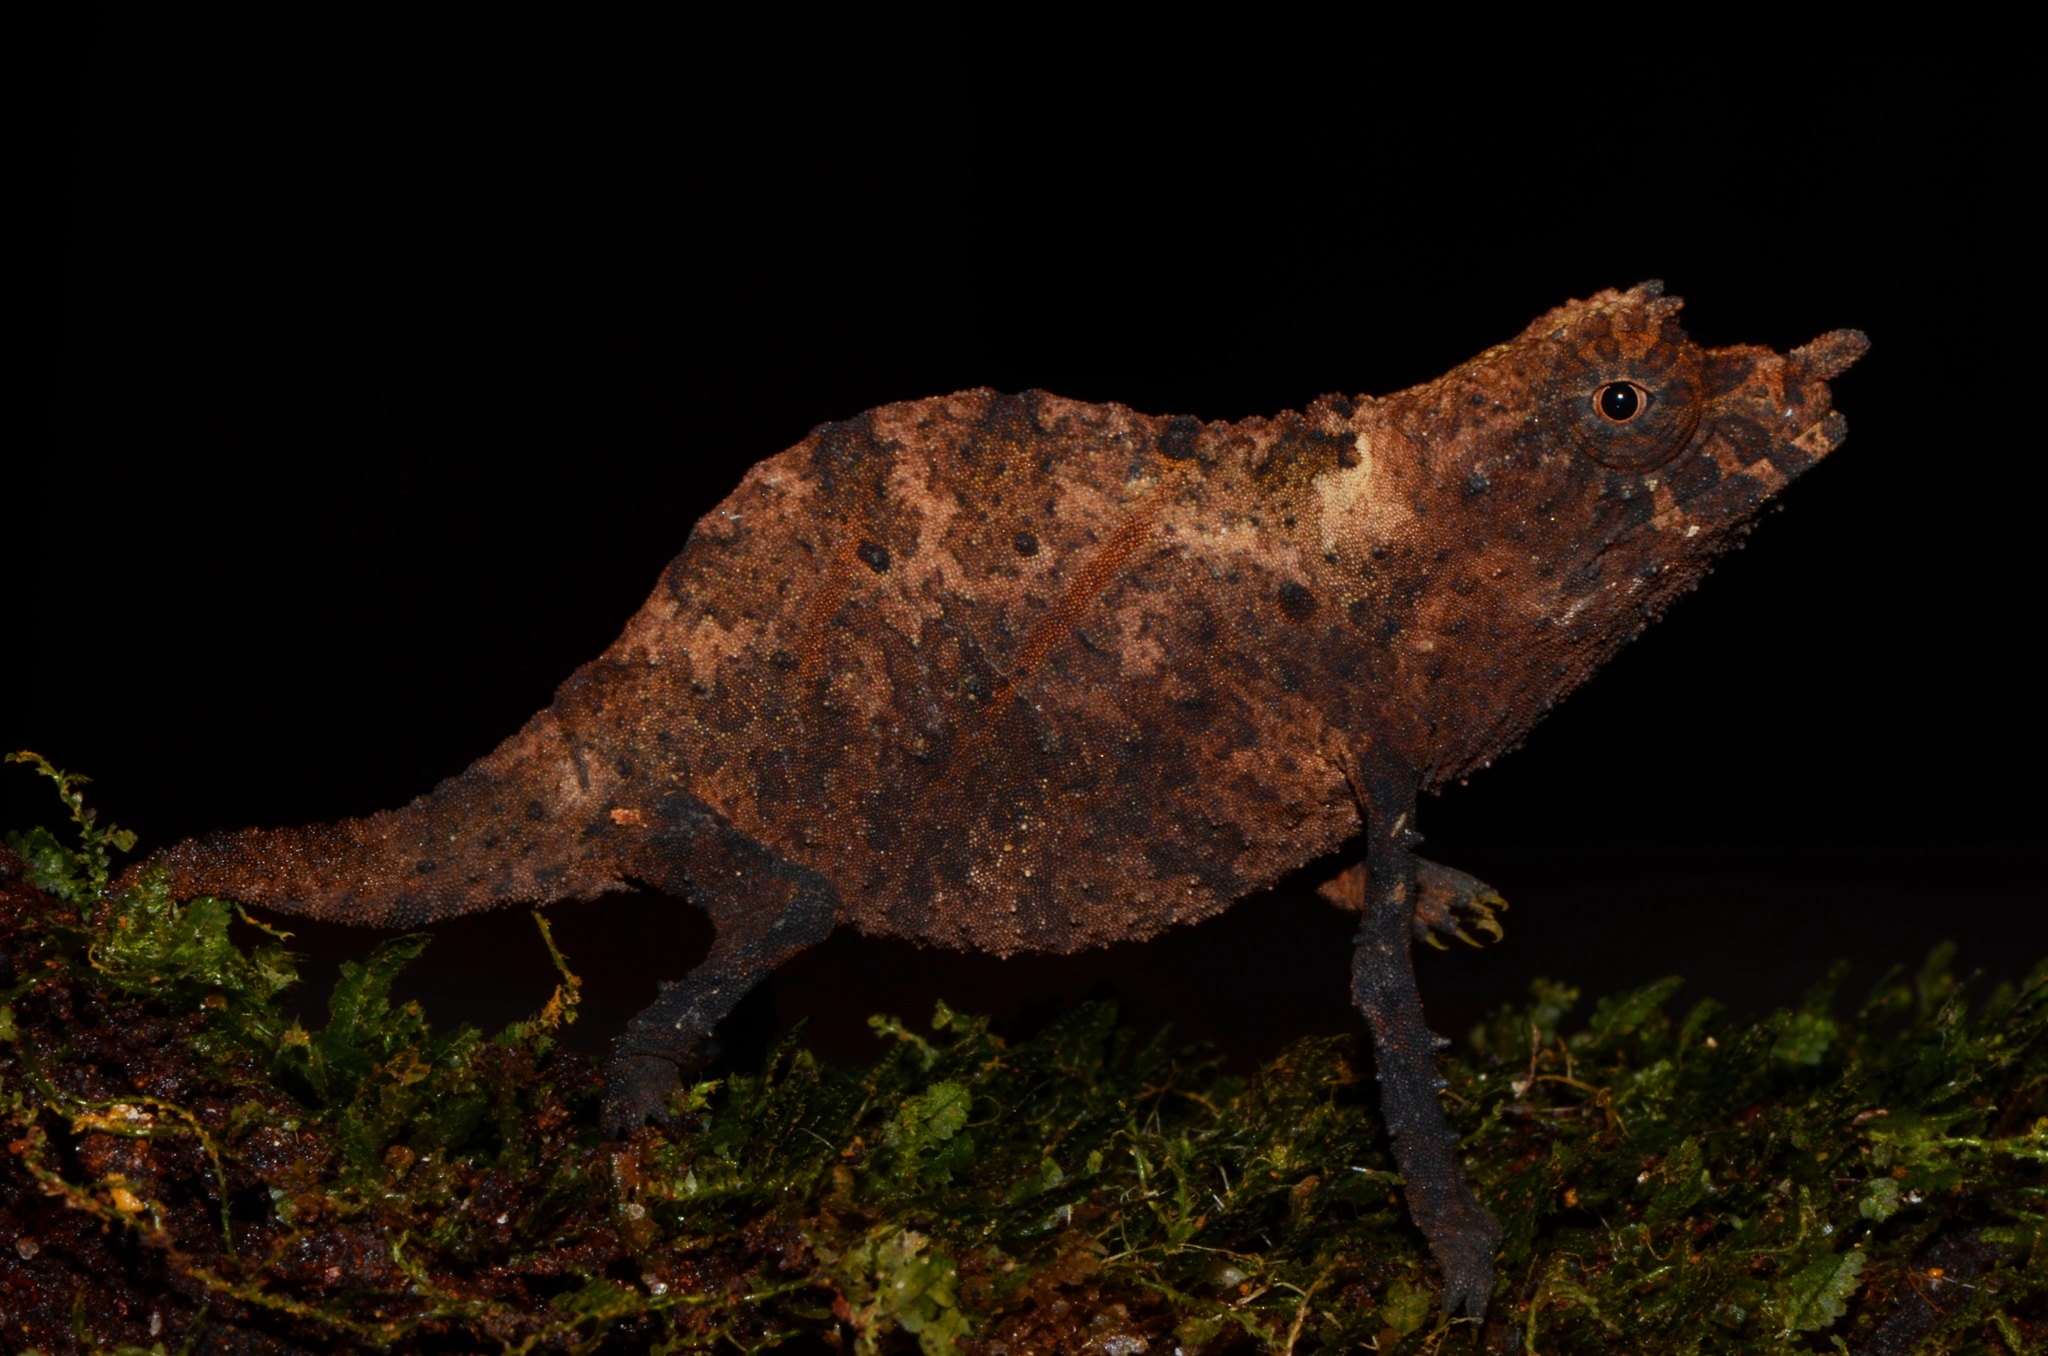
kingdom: Animalia
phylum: Chordata
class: Squamata
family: Chamaeleonidae
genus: Rhampholeon
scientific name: Rhampholeon spectrum
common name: Cameroon stumptail chameleon
